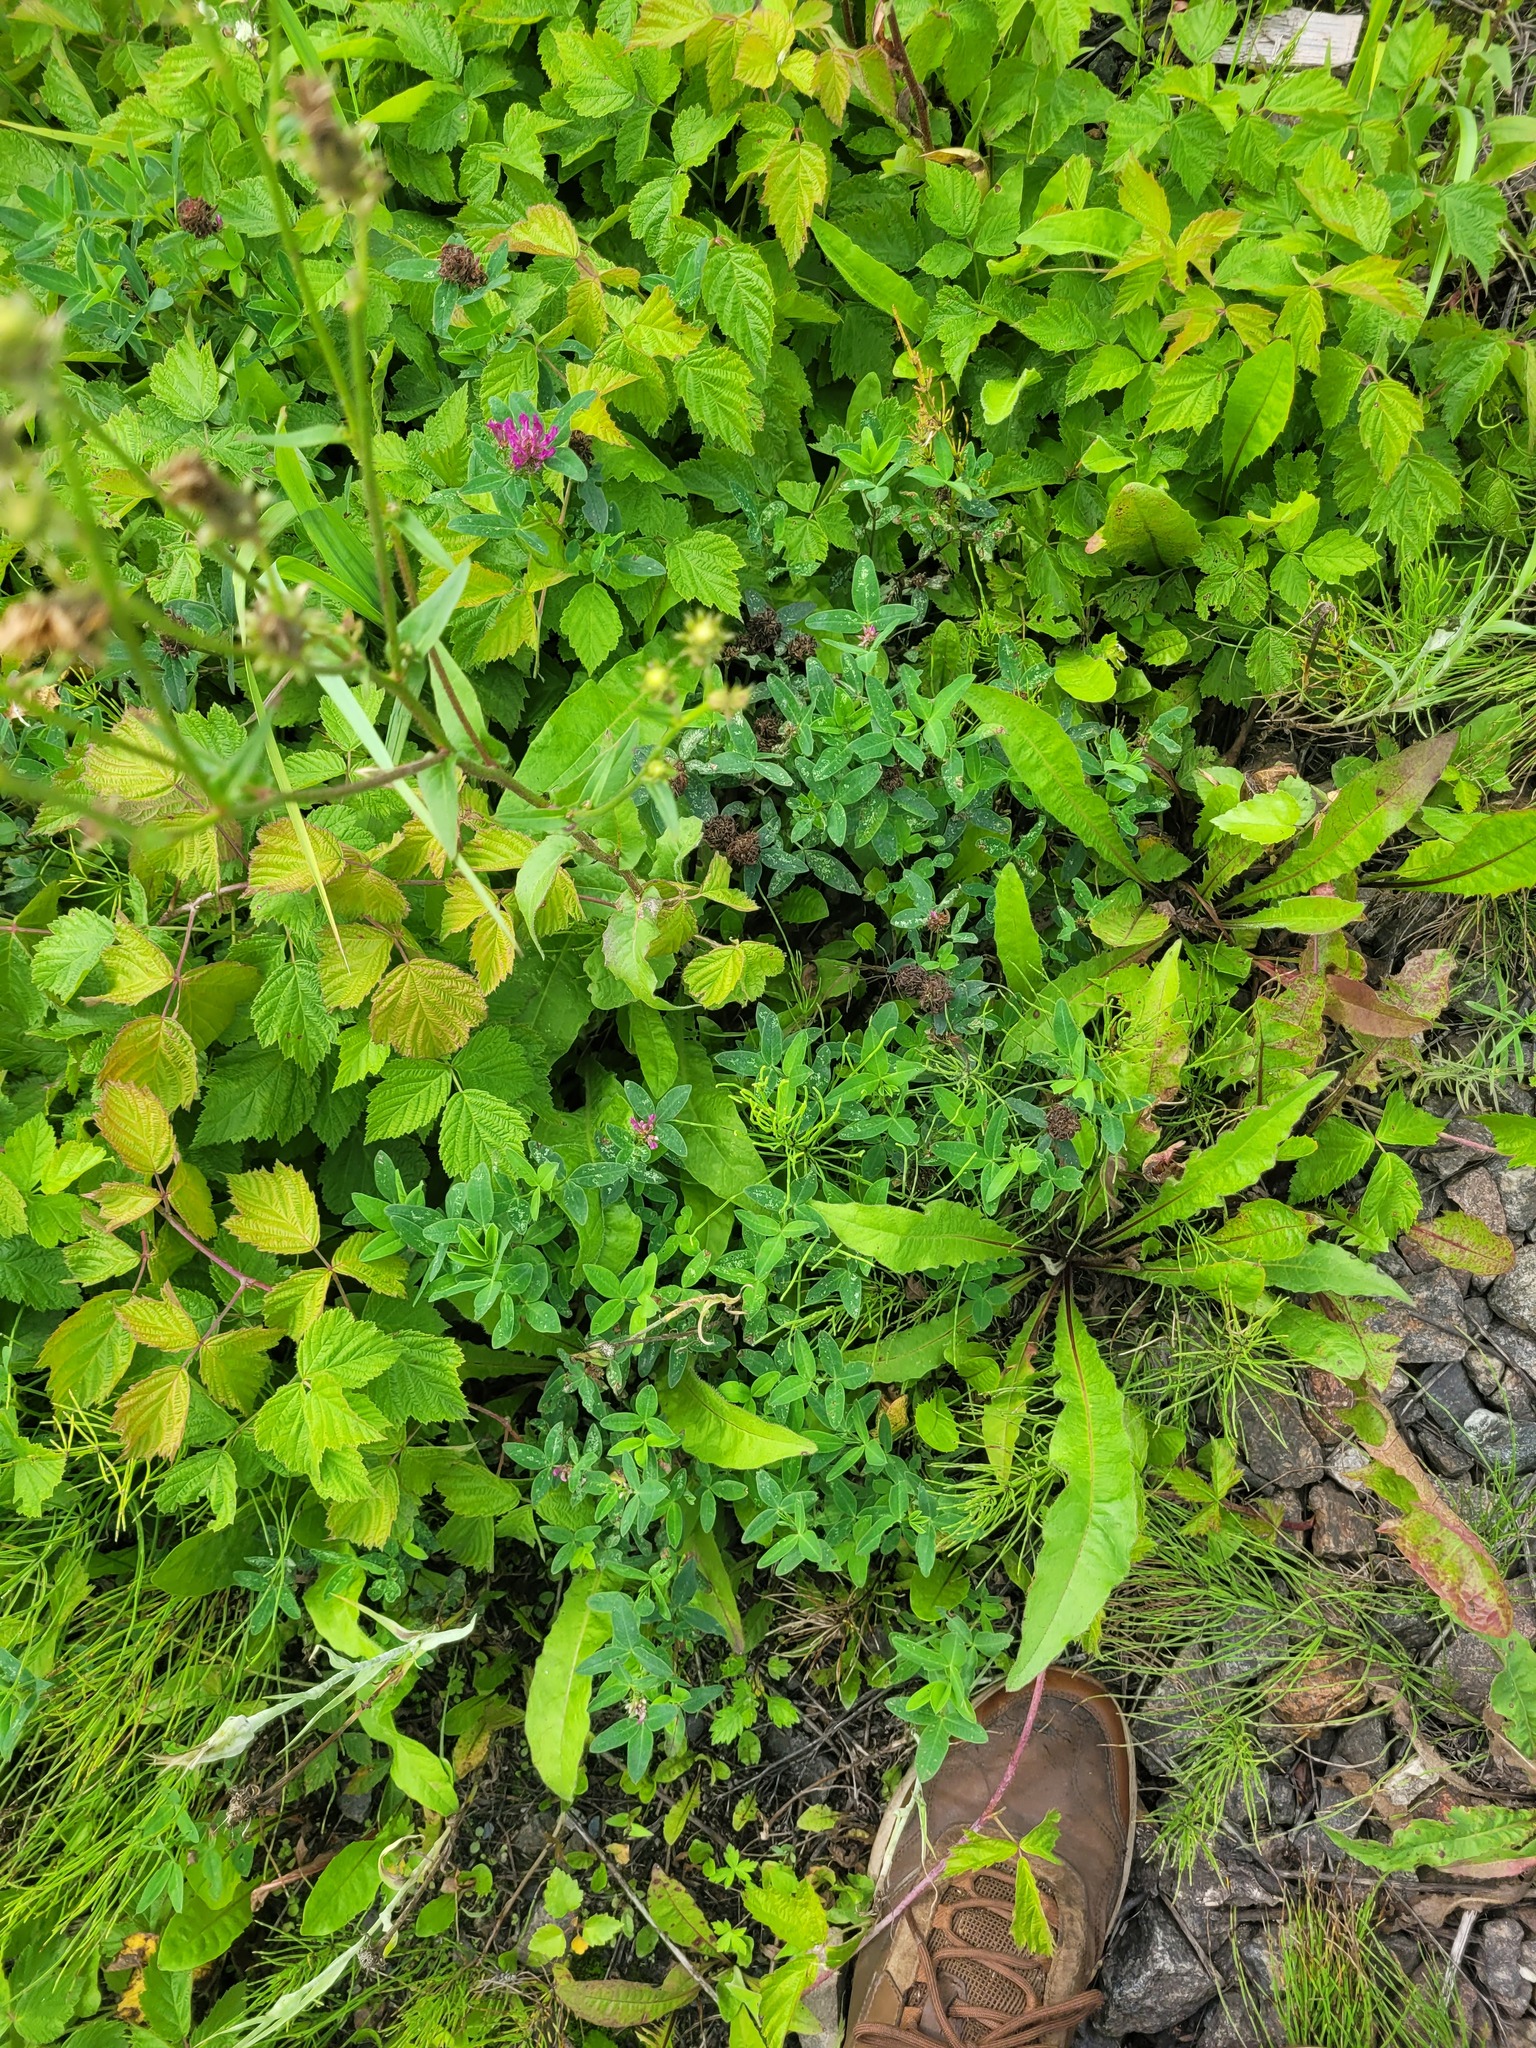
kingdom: Plantae
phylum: Tracheophyta
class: Magnoliopsida
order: Fabales
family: Fabaceae
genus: Trifolium
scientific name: Trifolium medium
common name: Zigzag clover
